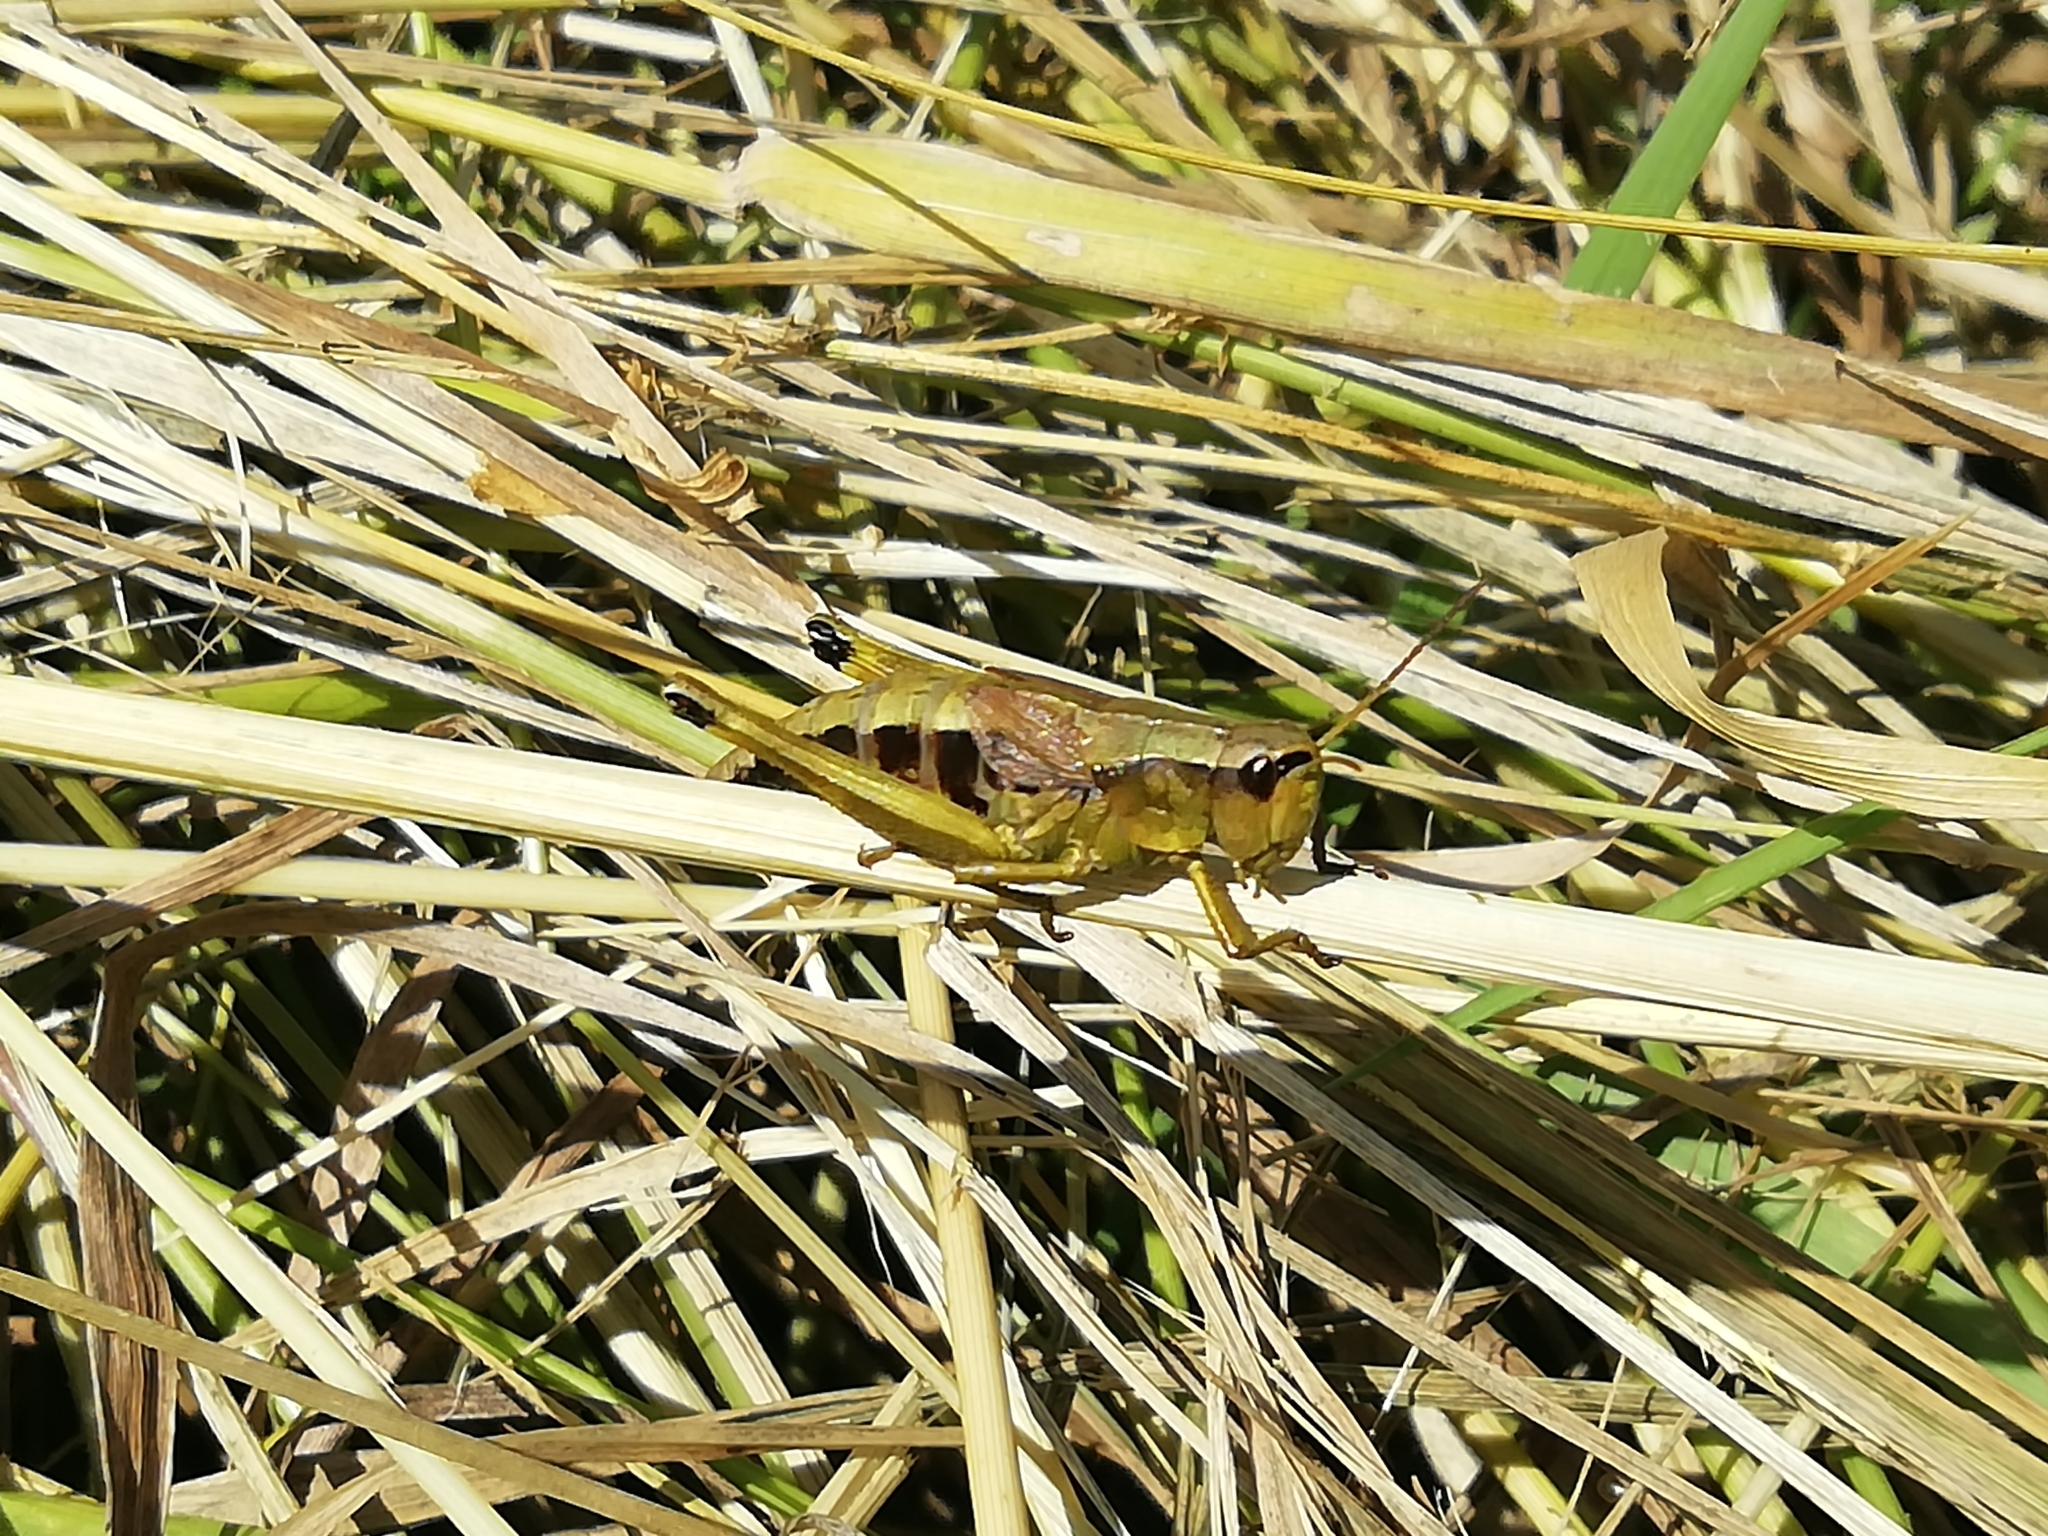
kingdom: Animalia
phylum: Arthropoda
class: Insecta
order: Orthoptera
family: Acrididae
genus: Podismopsis
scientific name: Podismopsis poppiusi
